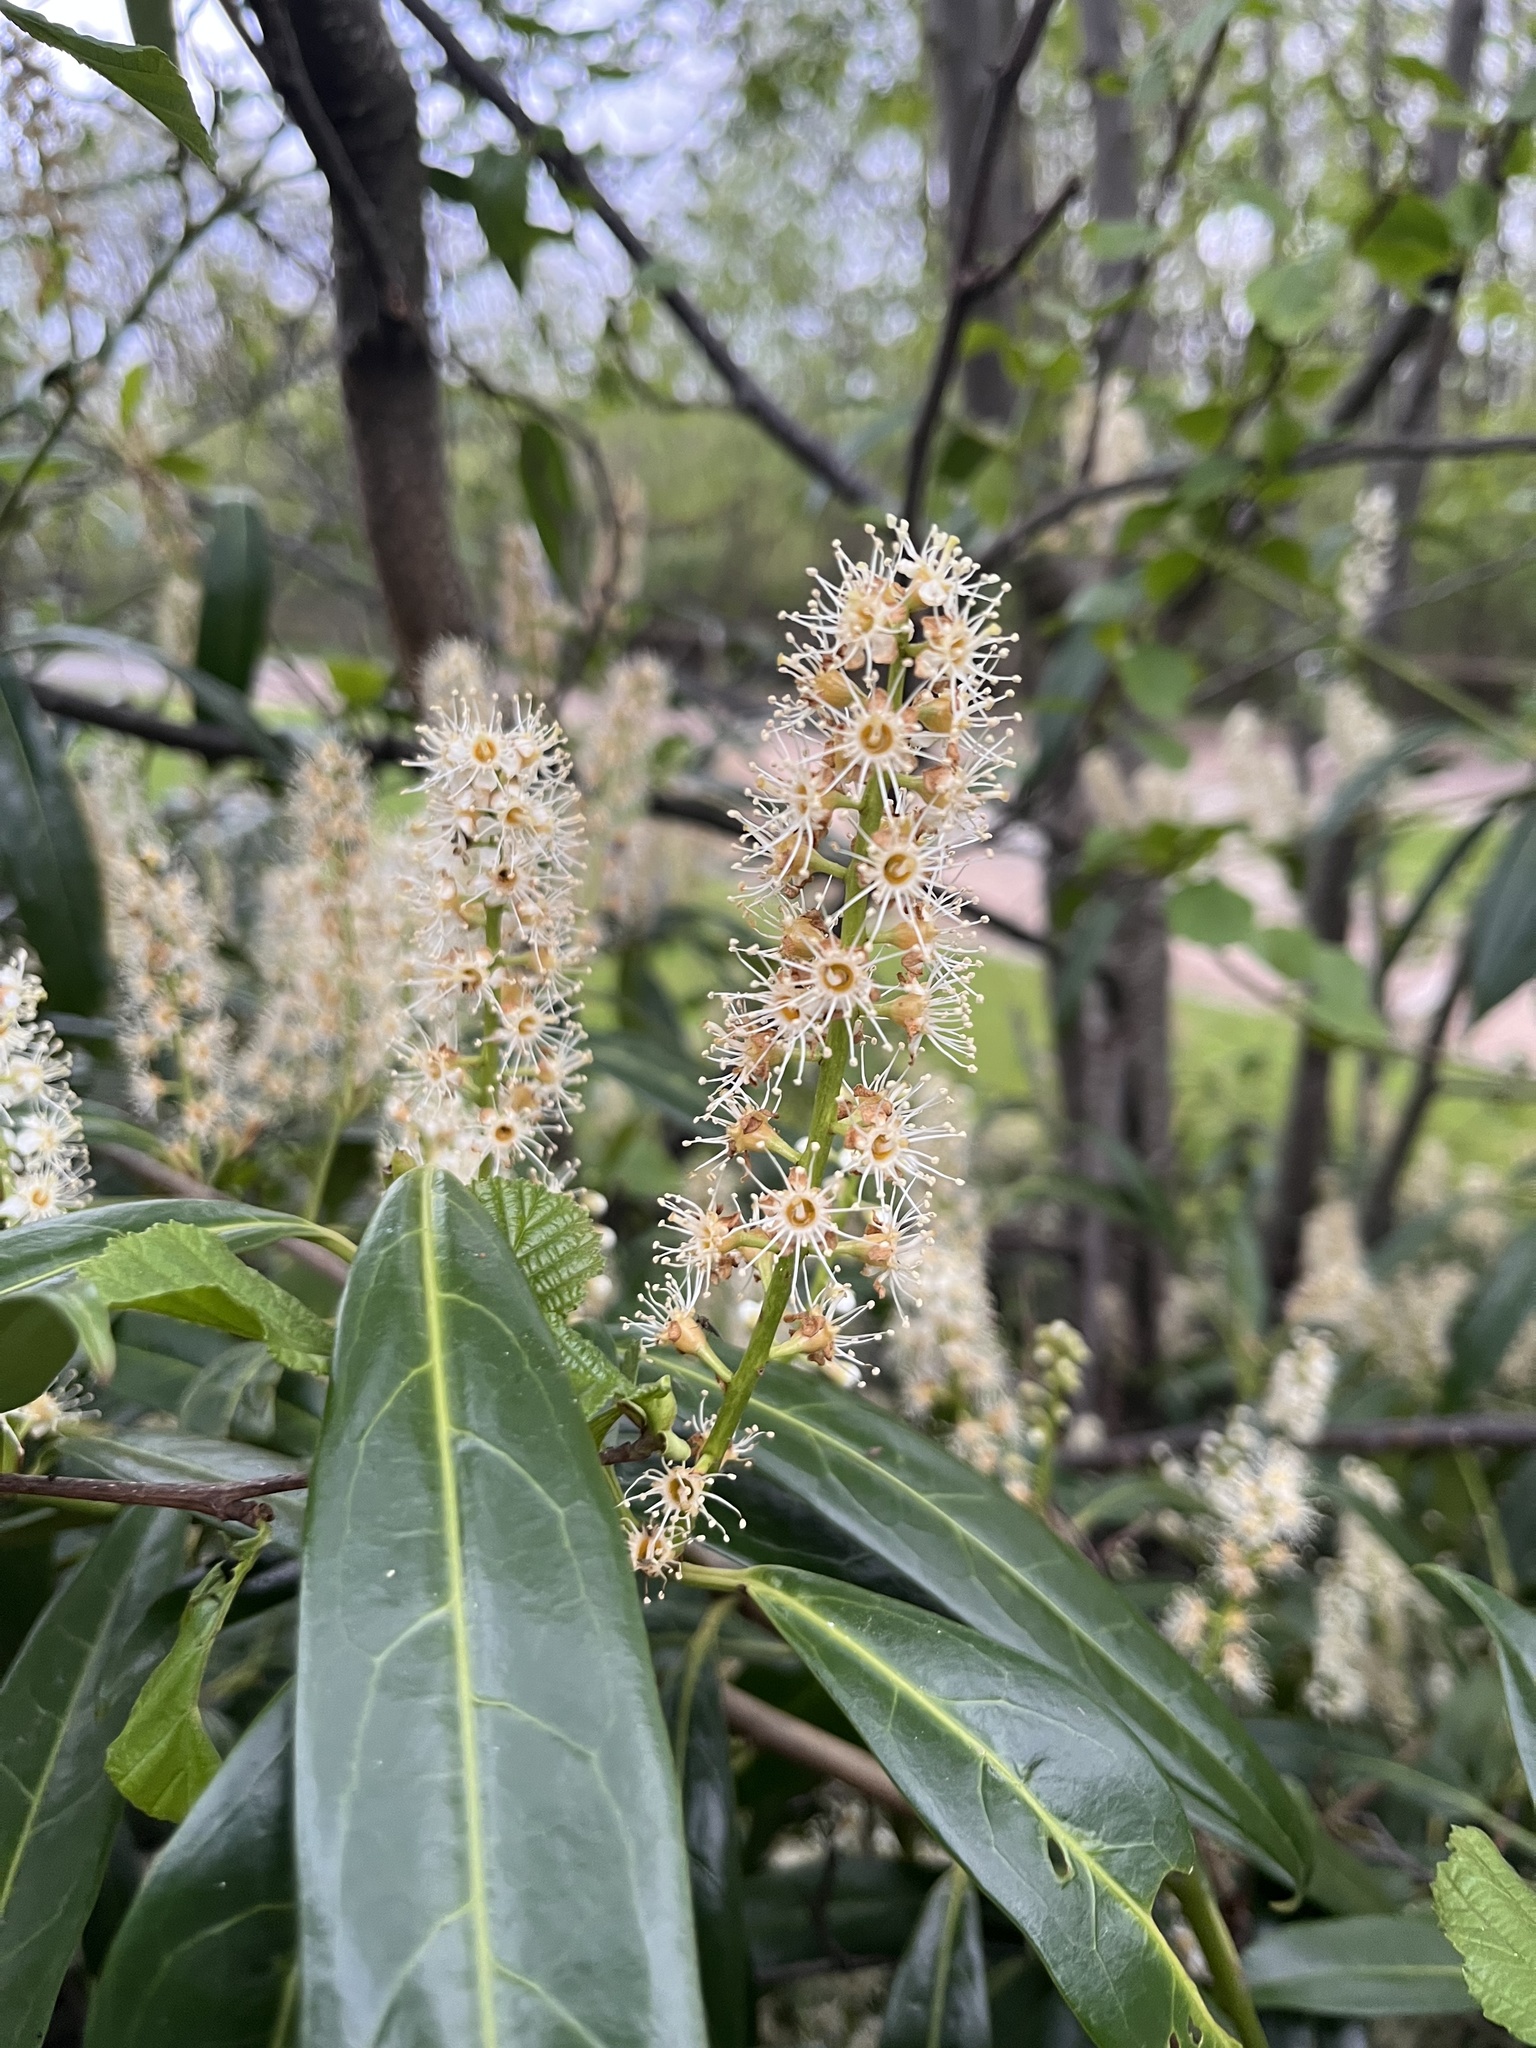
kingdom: Plantae
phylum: Tracheophyta
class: Magnoliopsida
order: Rosales
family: Rosaceae
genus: Prunus
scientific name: Prunus laurocerasus
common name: Cherry laurel
